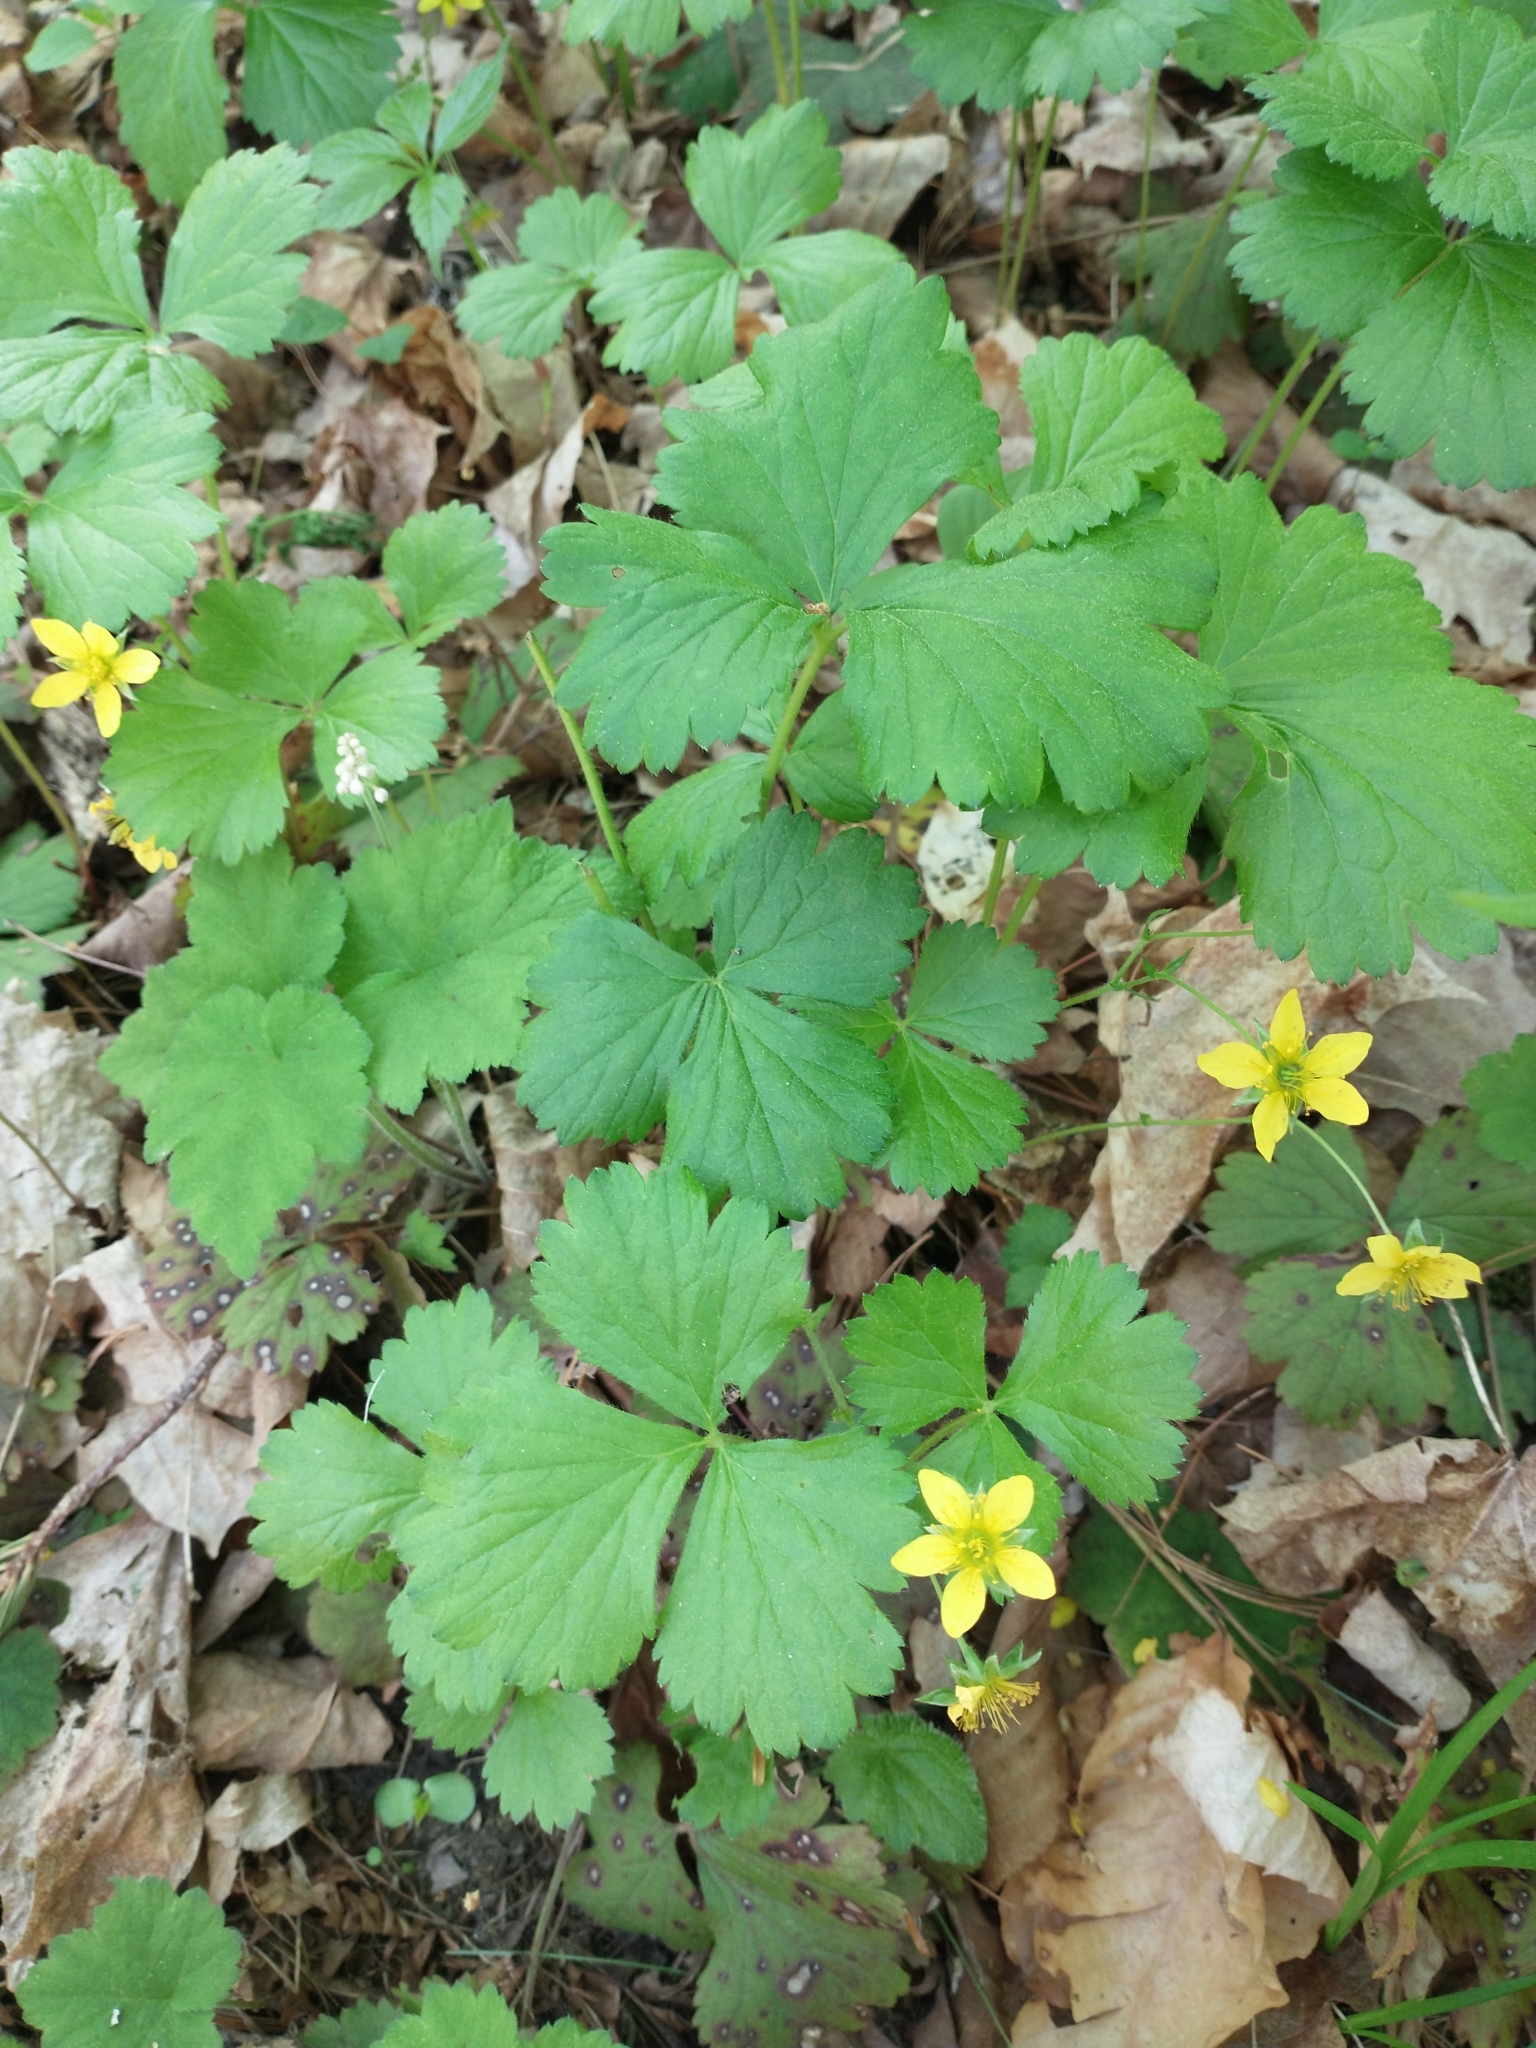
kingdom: Plantae
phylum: Tracheophyta
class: Magnoliopsida
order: Rosales
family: Rosaceae
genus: Geum
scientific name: Geum fragarioides
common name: Appalachian barren strawberry
